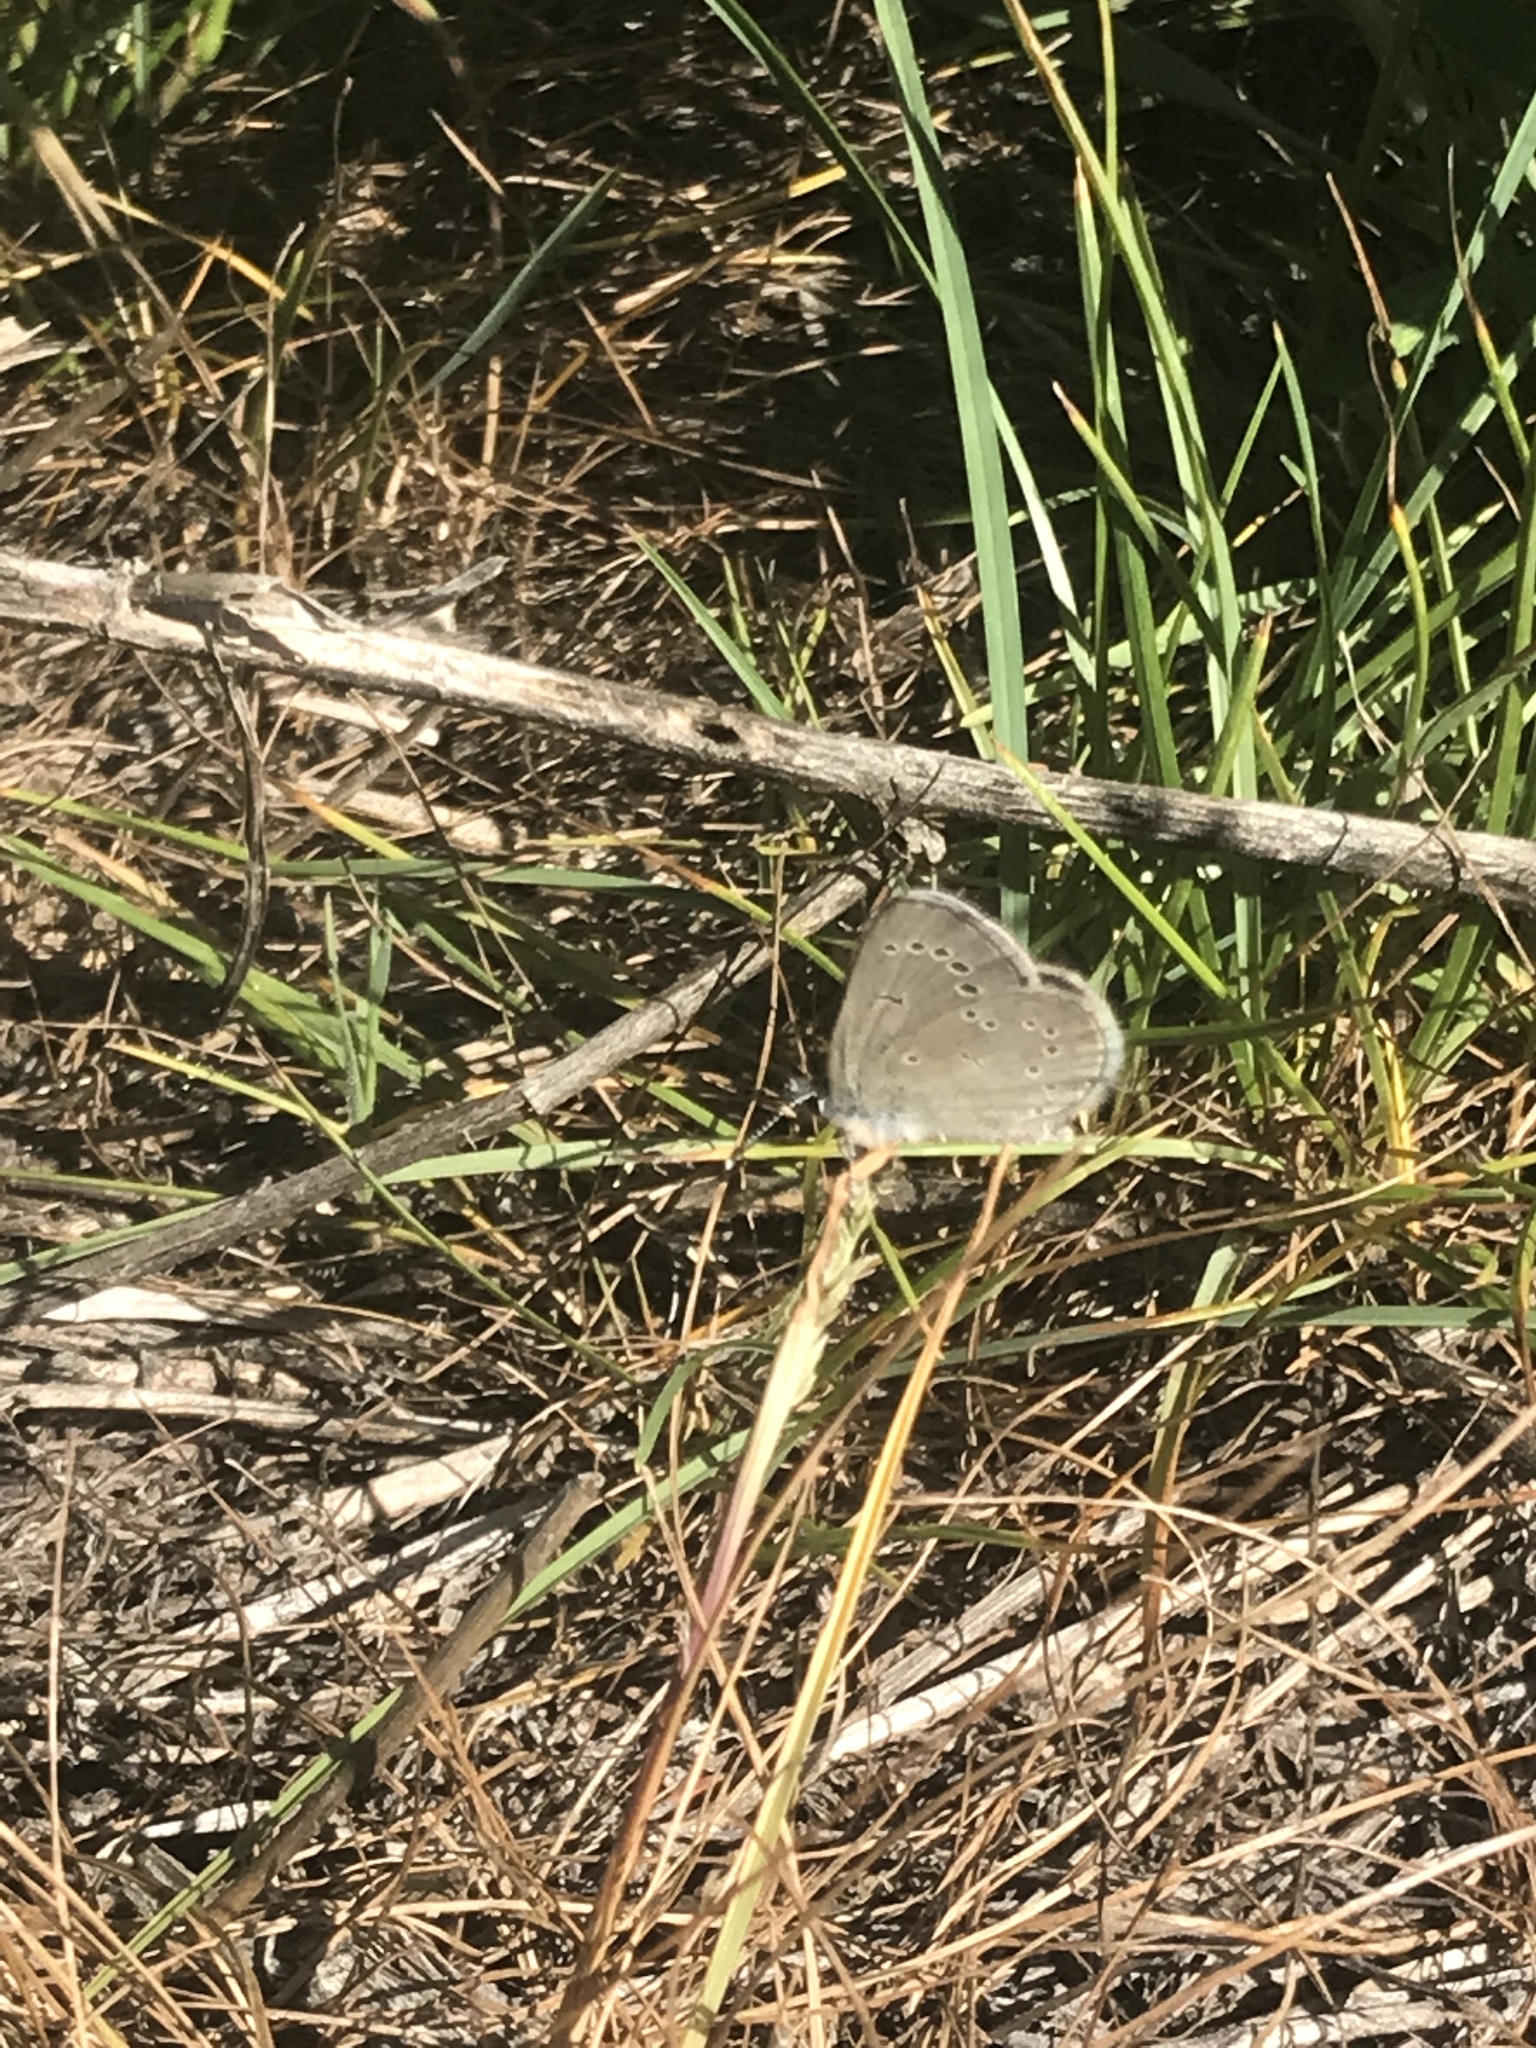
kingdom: Animalia
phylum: Arthropoda
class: Insecta
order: Lepidoptera
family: Lycaenidae
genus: Glaucopsyche
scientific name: Glaucopsyche lygdamus
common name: Silvery blue
